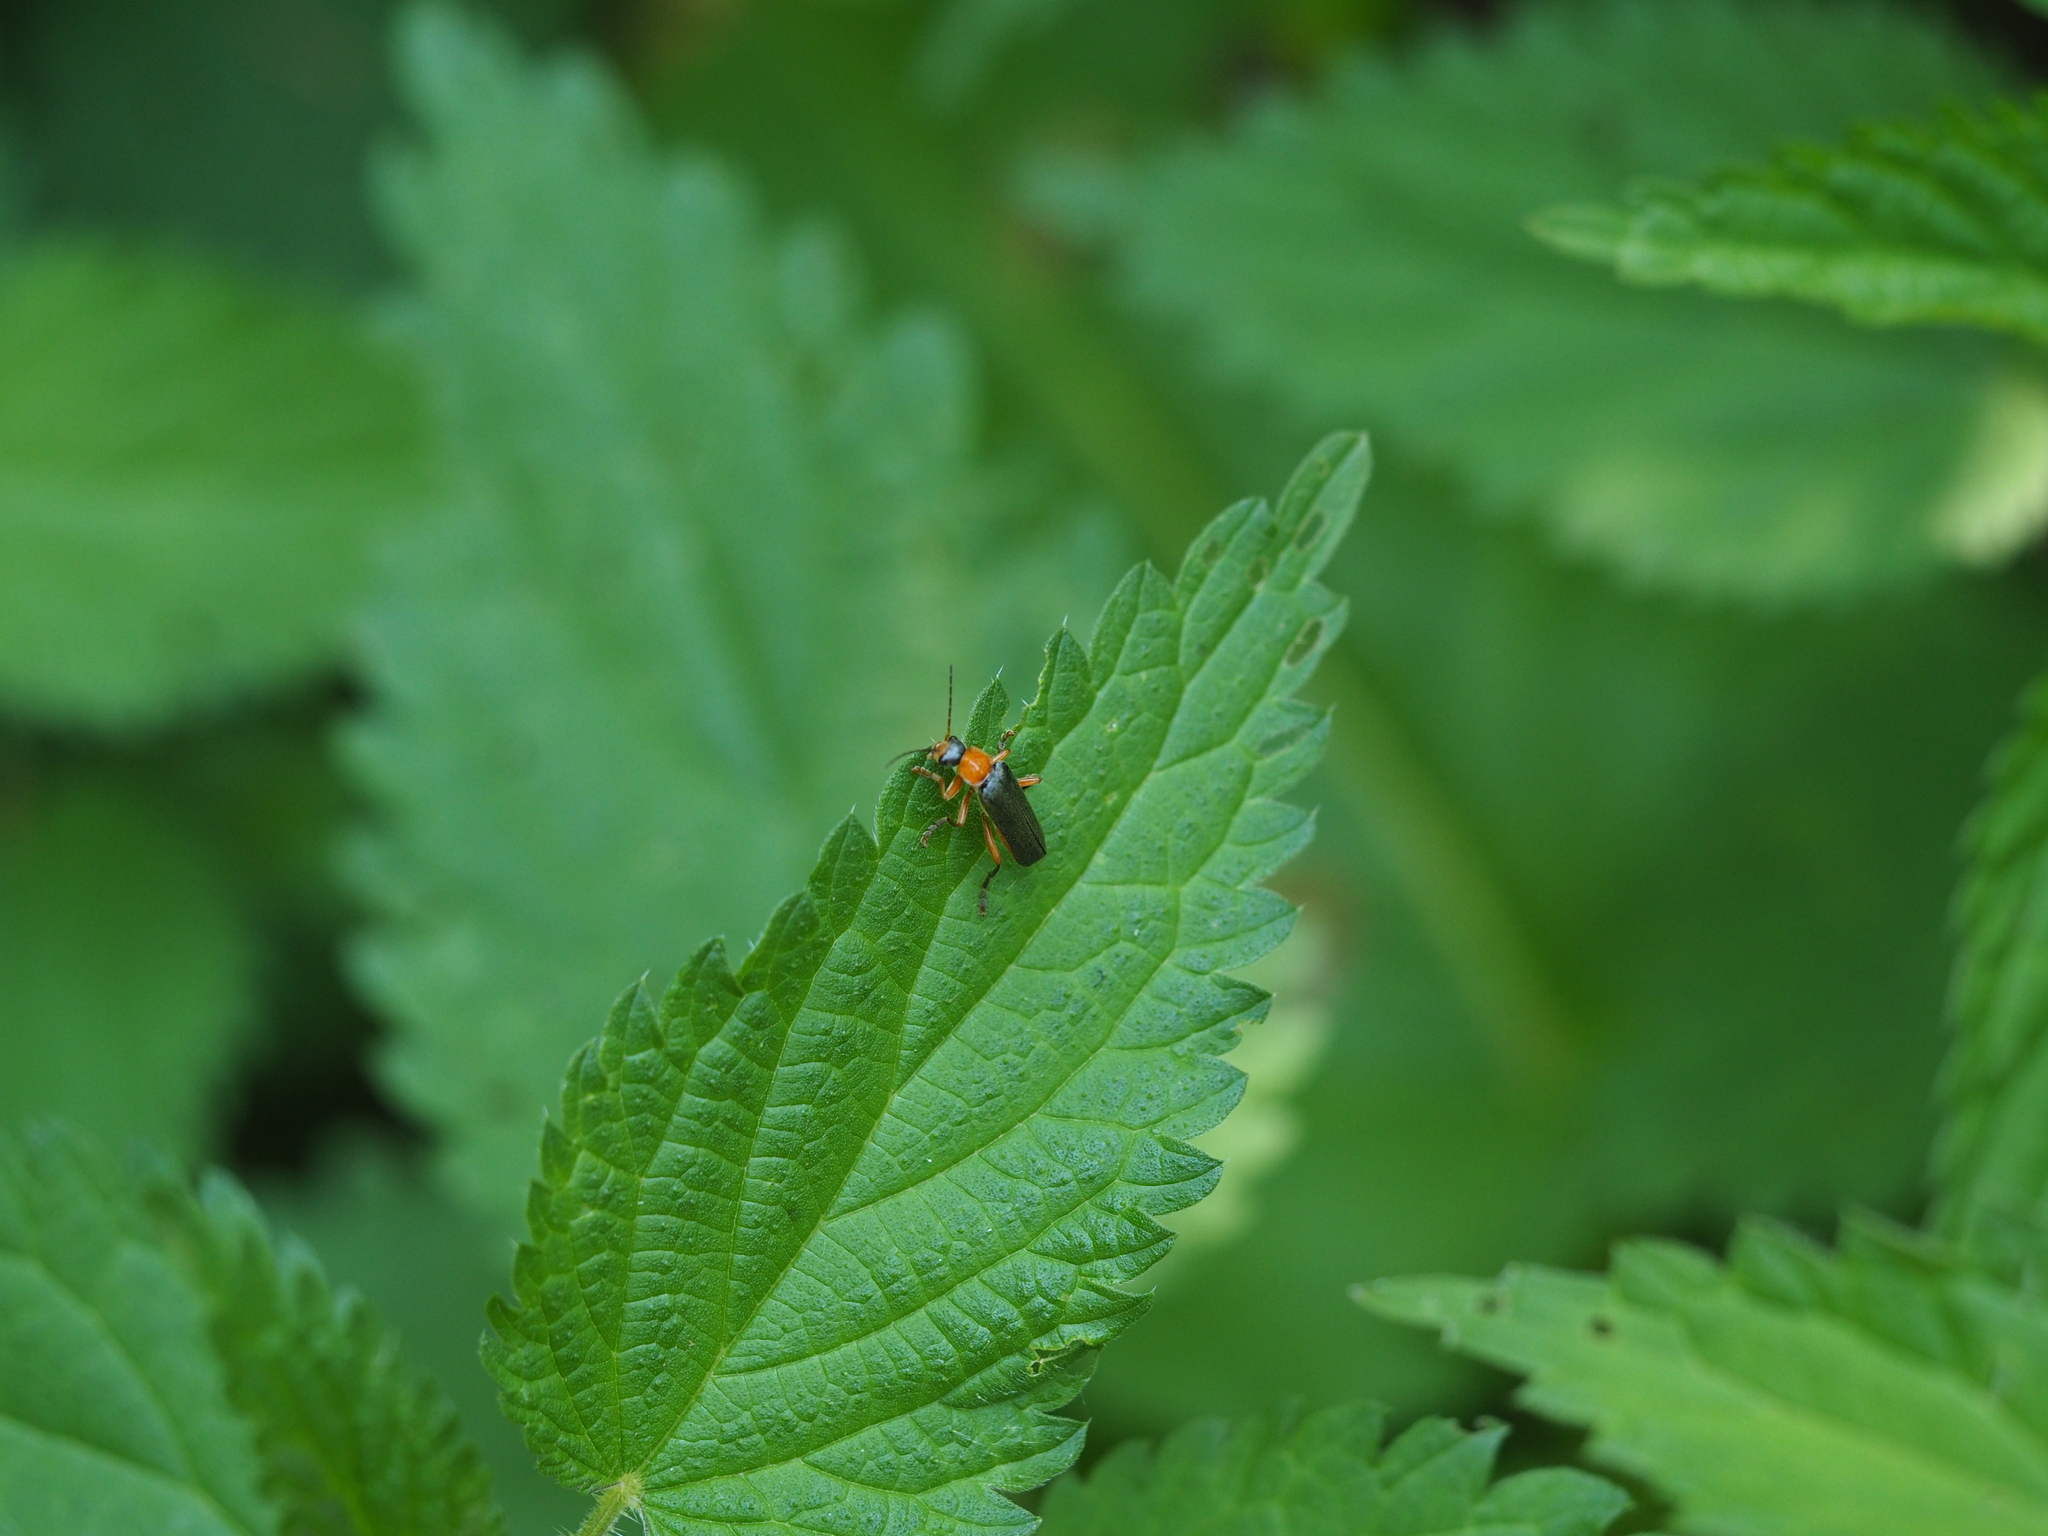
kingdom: Animalia
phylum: Arthropoda
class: Insecta
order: Coleoptera
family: Cantharidae
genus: Cantharis
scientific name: Cantharis pellucida
